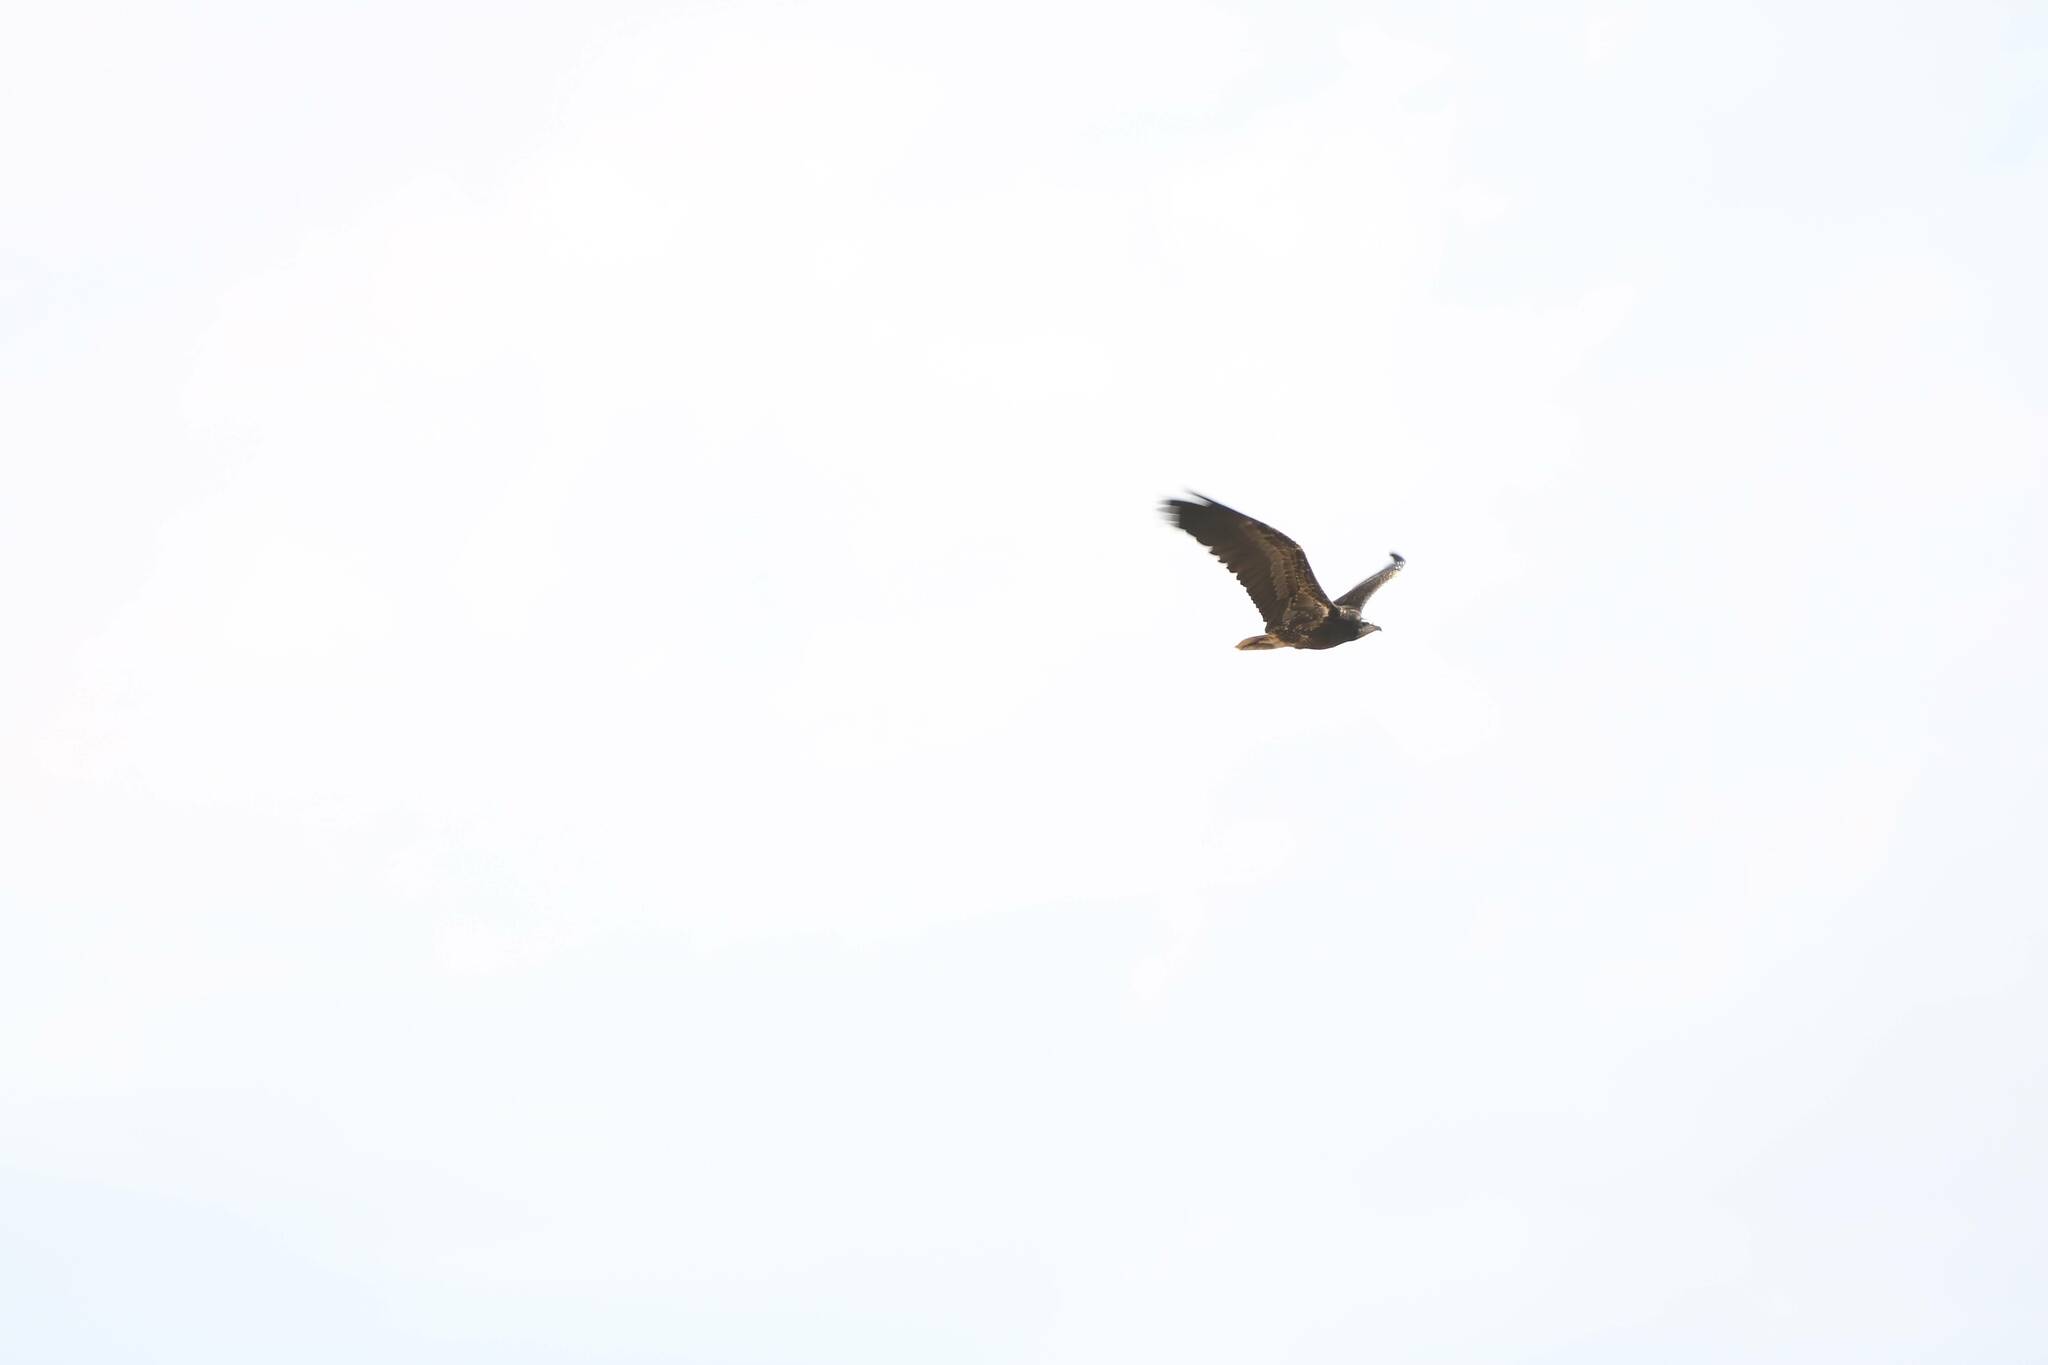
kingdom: Animalia
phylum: Chordata
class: Aves
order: Accipitriformes
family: Accipitridae
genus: Neophron
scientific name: Neophron percnopterus
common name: Egyptian vulture
